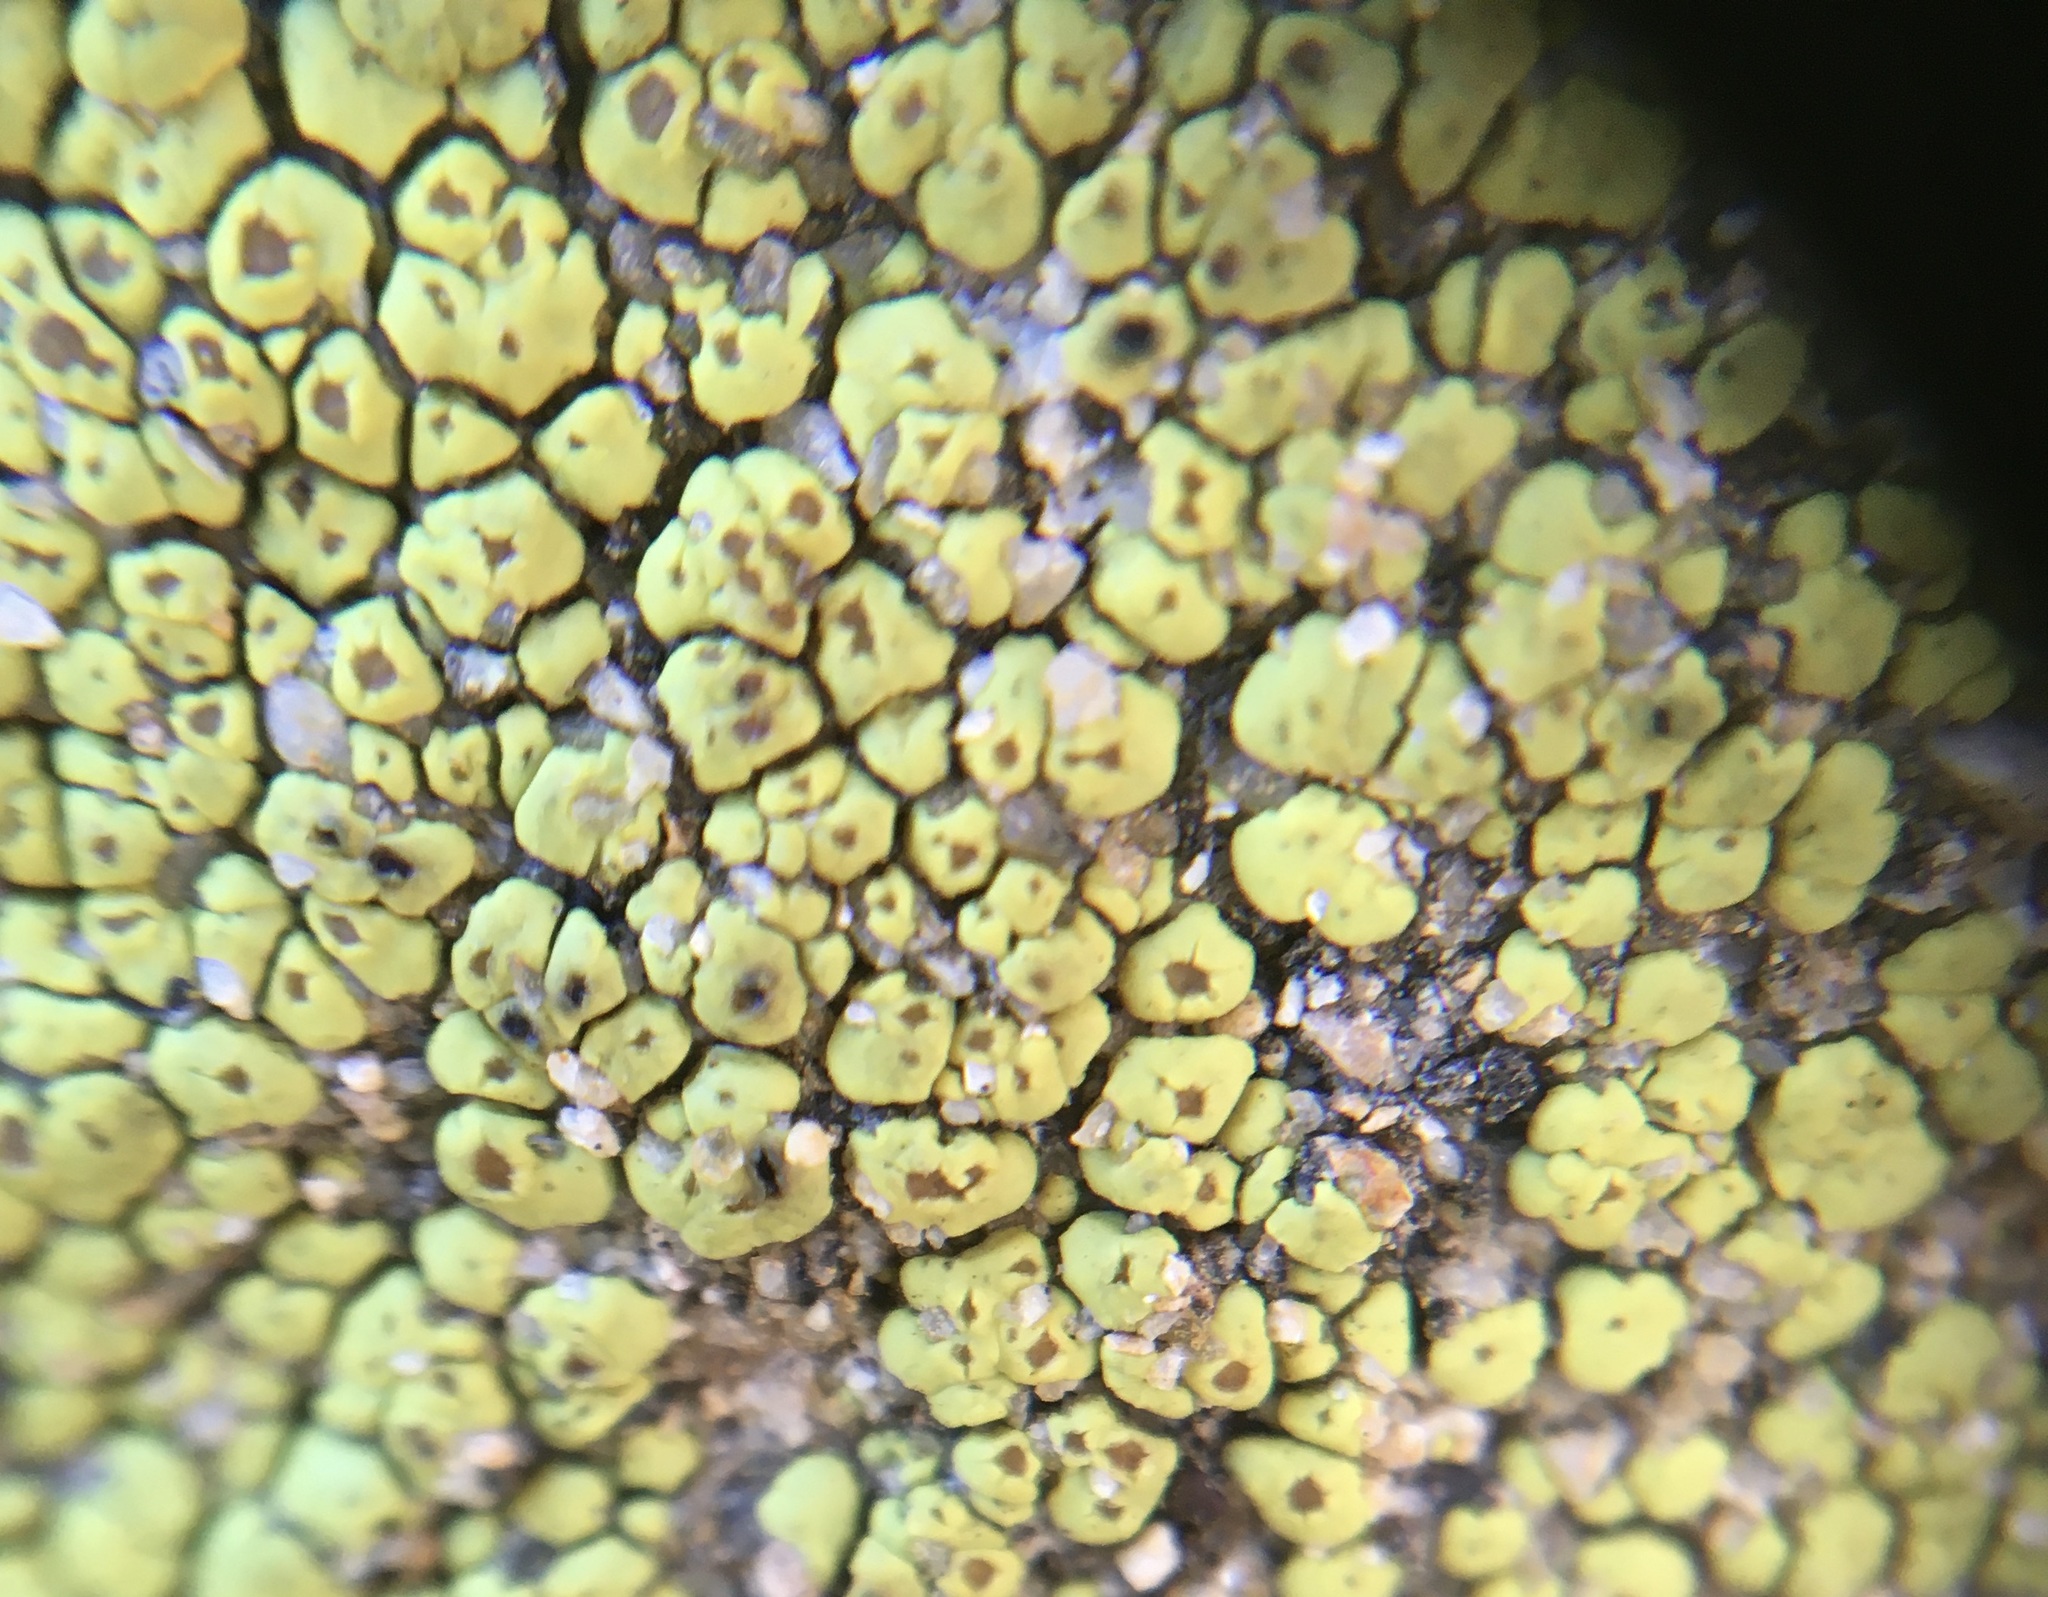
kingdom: Fungi
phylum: Ascomycota
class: Lecanoromycetes
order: Acarosporales
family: Acarosporaceae
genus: Acarospora
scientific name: Acarospora socialis
